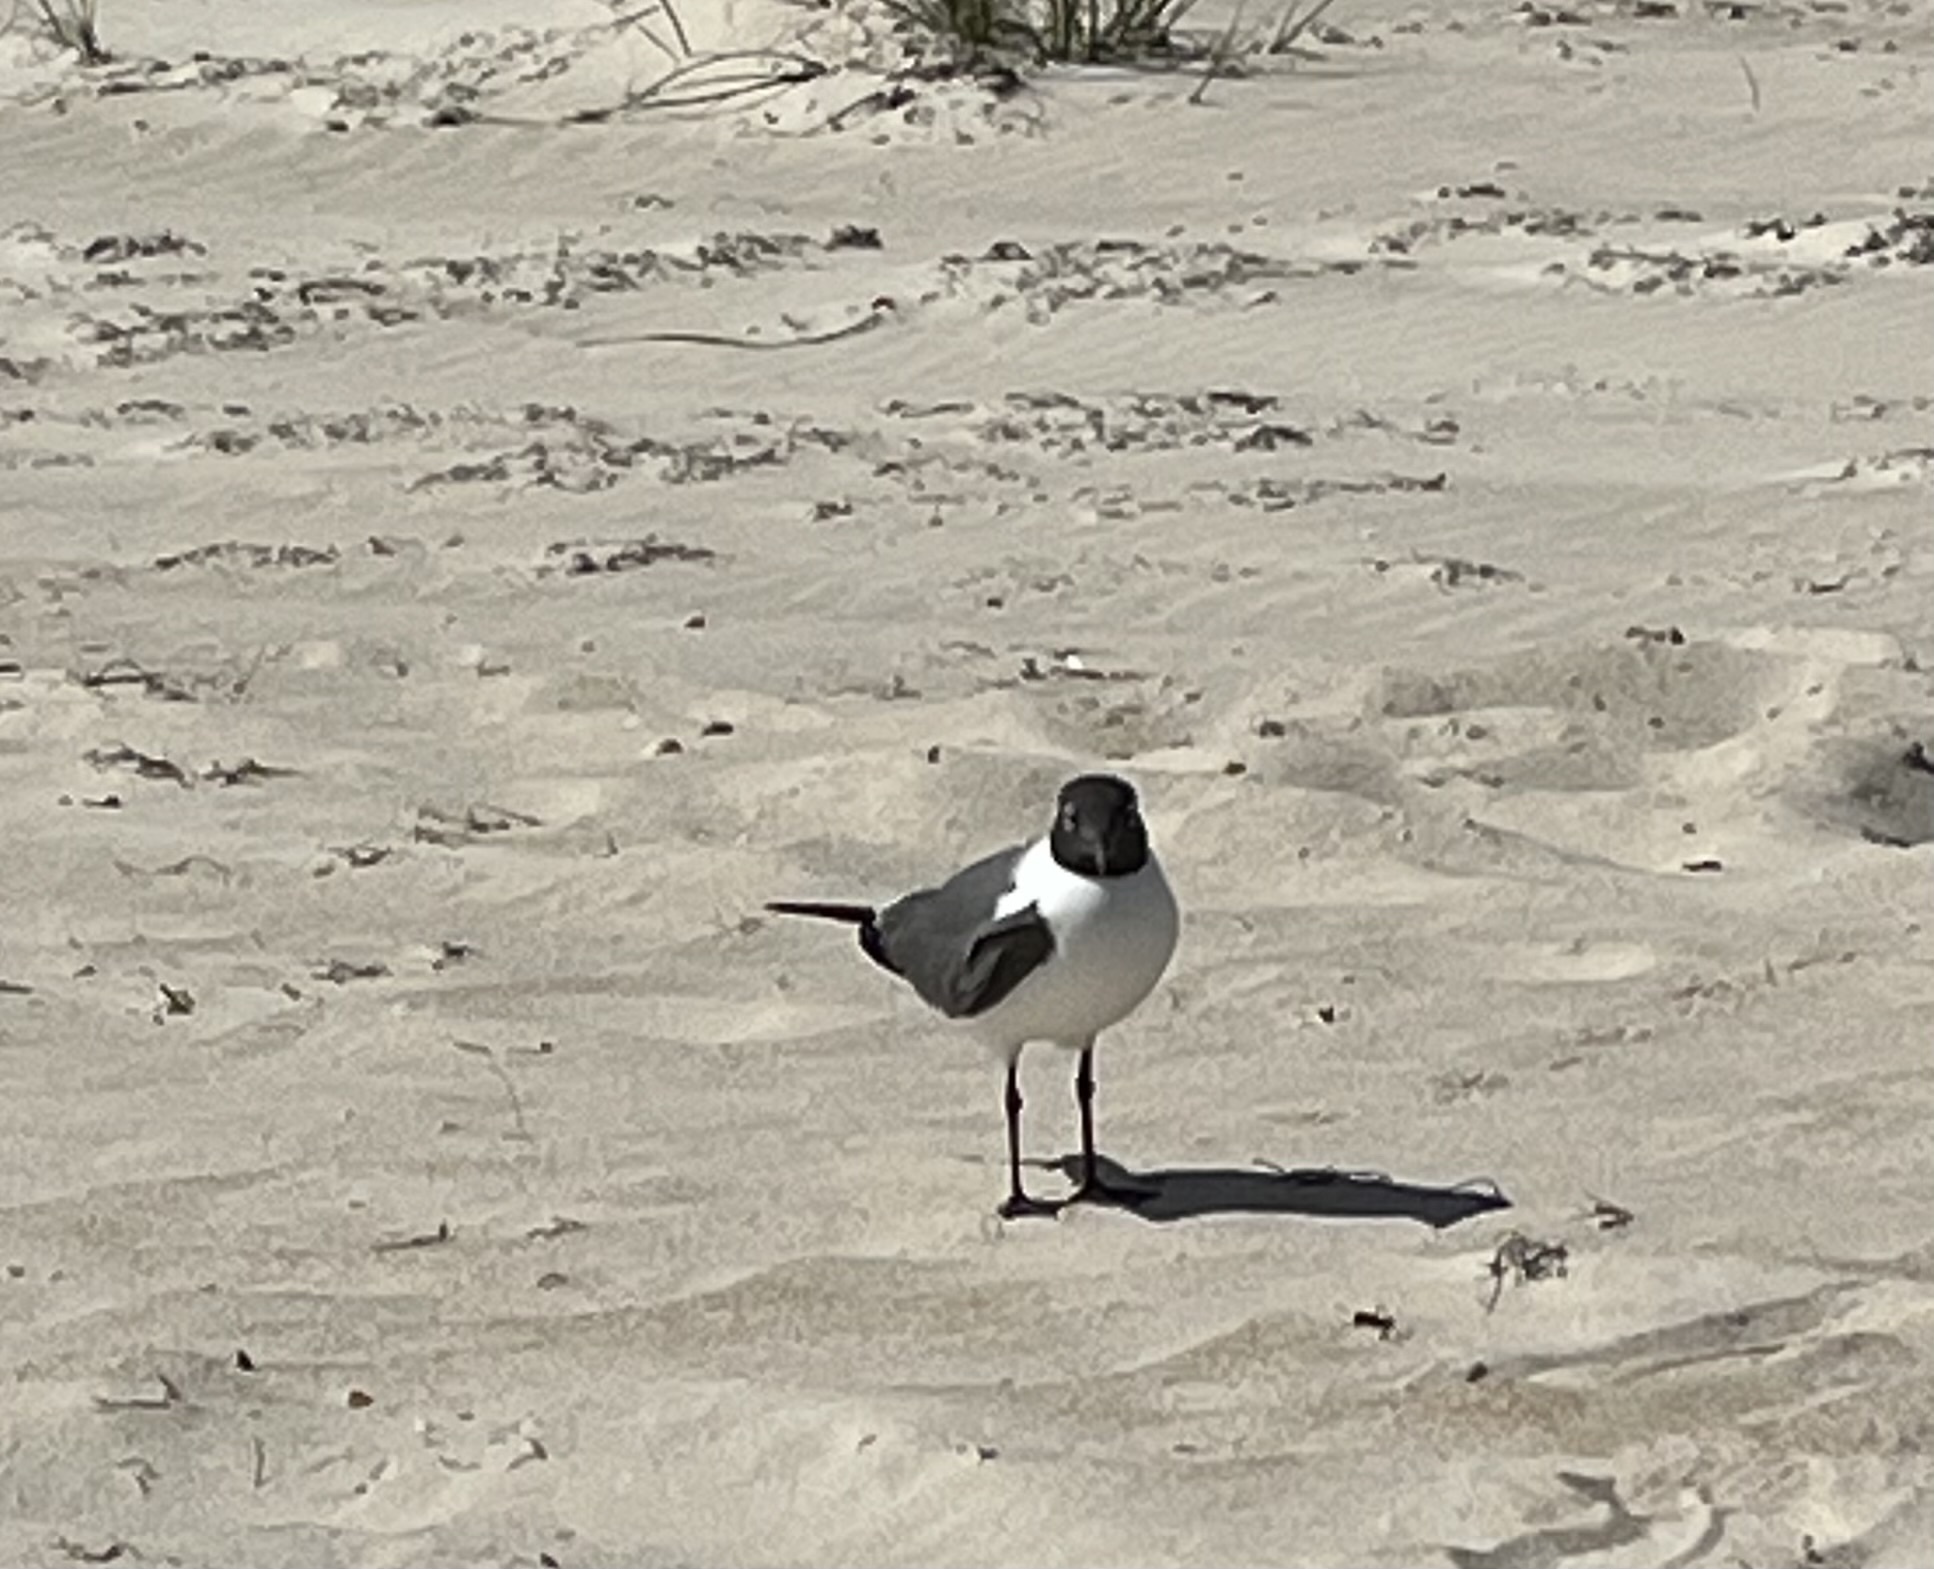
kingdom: Animalia
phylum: Chordata
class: Aves
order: Charadriiformes
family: Laridae
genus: Leucophaeus
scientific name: Leucophaeus atricilla
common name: Laughing gull
